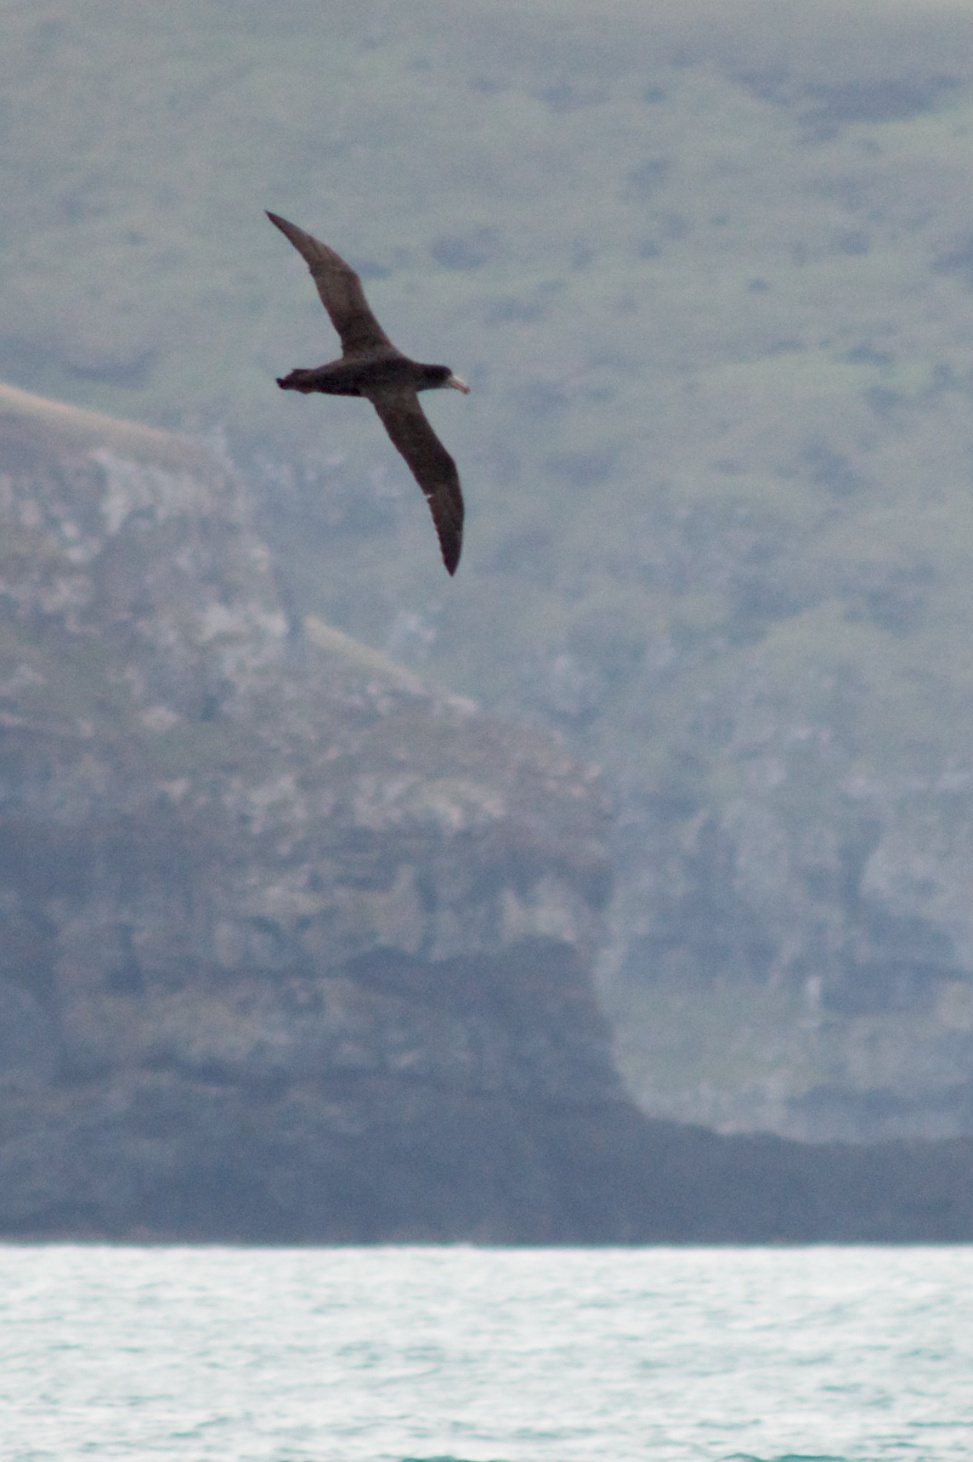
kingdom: Animalia
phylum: Chordata
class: Aves
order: Procellariiformes
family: Procellariidae
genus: Macronectes
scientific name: Macronectes halli
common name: Northern giant petrel
